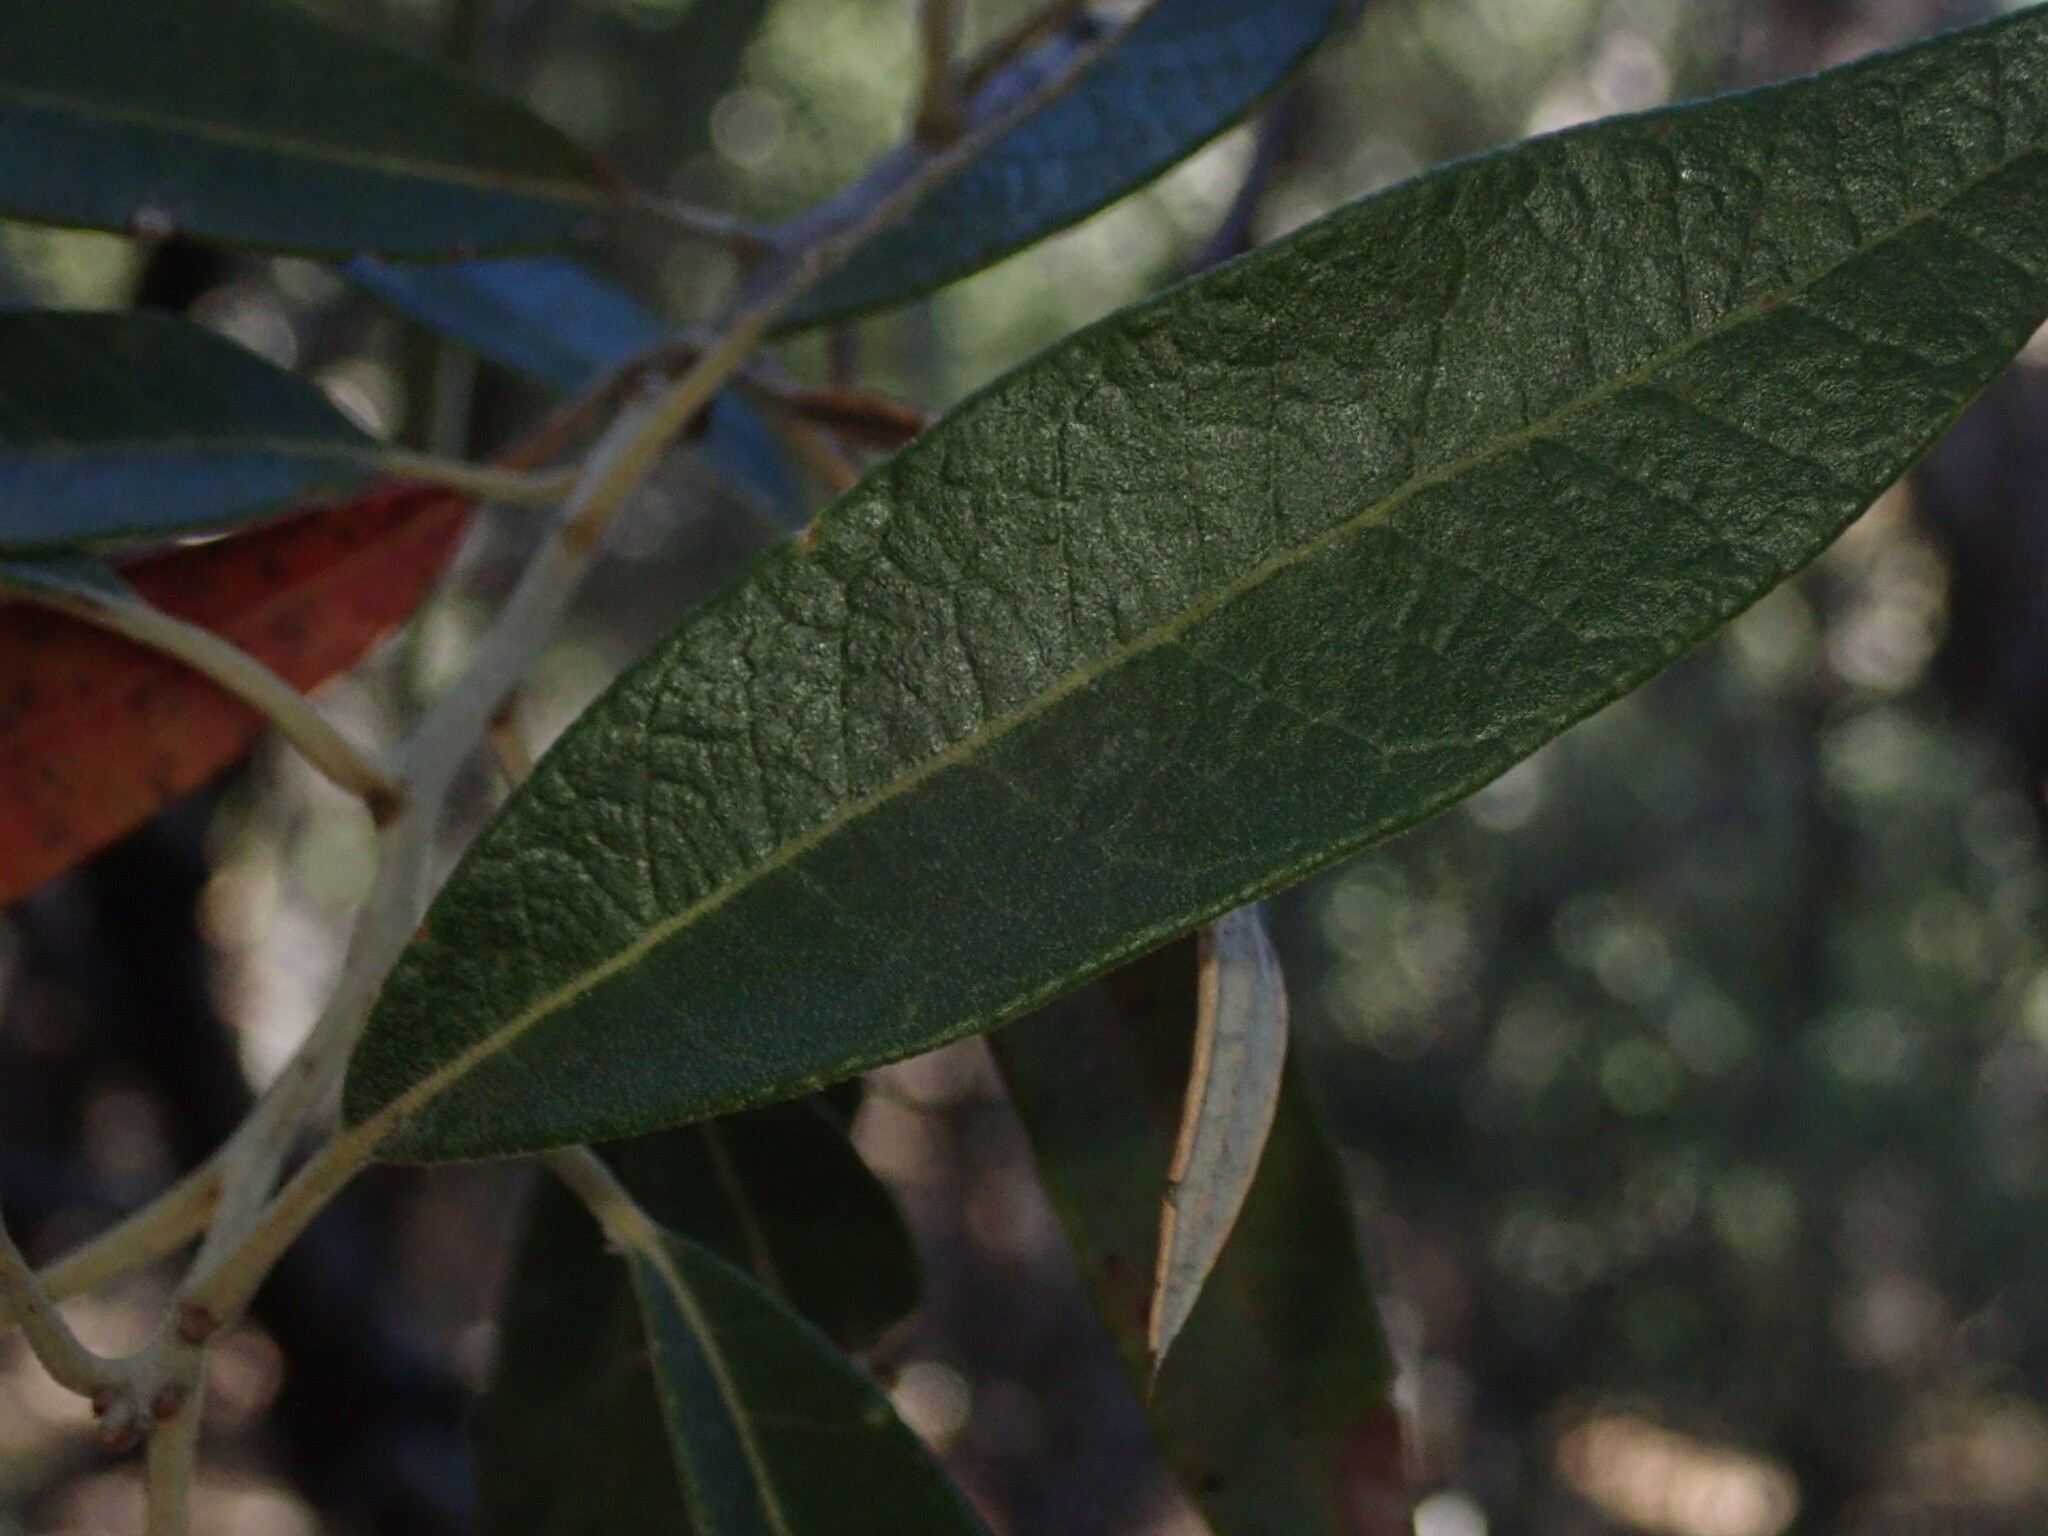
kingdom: Plantae
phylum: Tracheophyta
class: Magnoliopsida
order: Fagales
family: Fagaceae
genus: Quercus
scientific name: Quercus hypoleucoides
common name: Silverleaf oak
